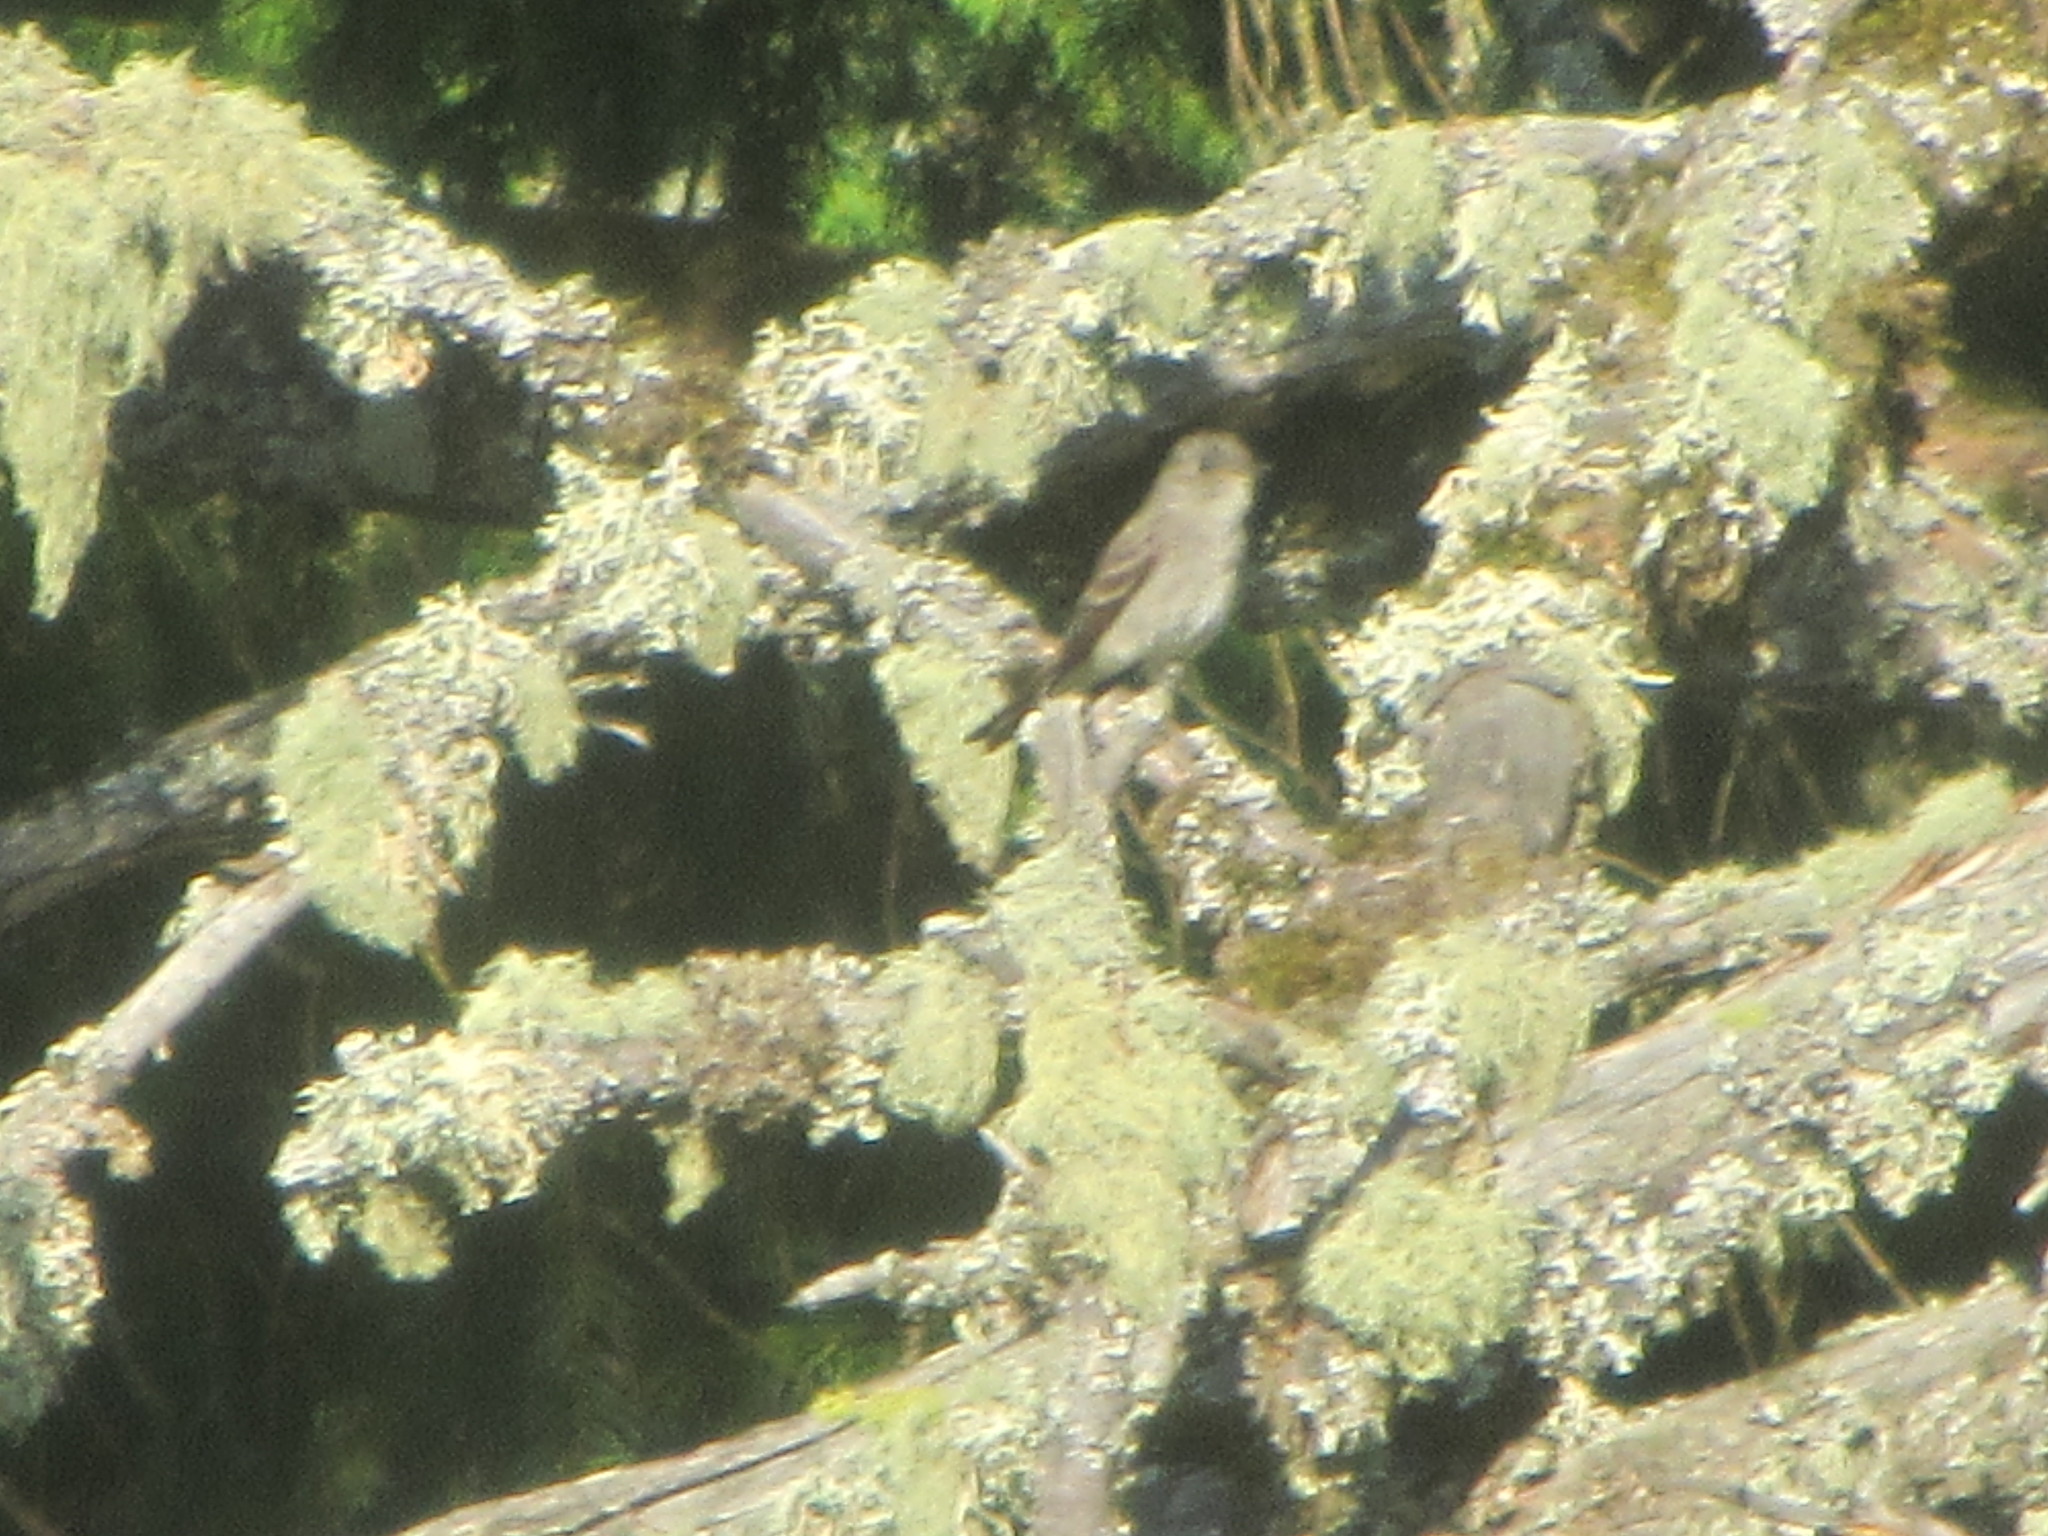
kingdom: Animalia
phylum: Chordata
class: Aves
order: Passeriformes
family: Tyrannidae
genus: Contopus
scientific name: Contopus sordidulus
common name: Western wood-pewee
